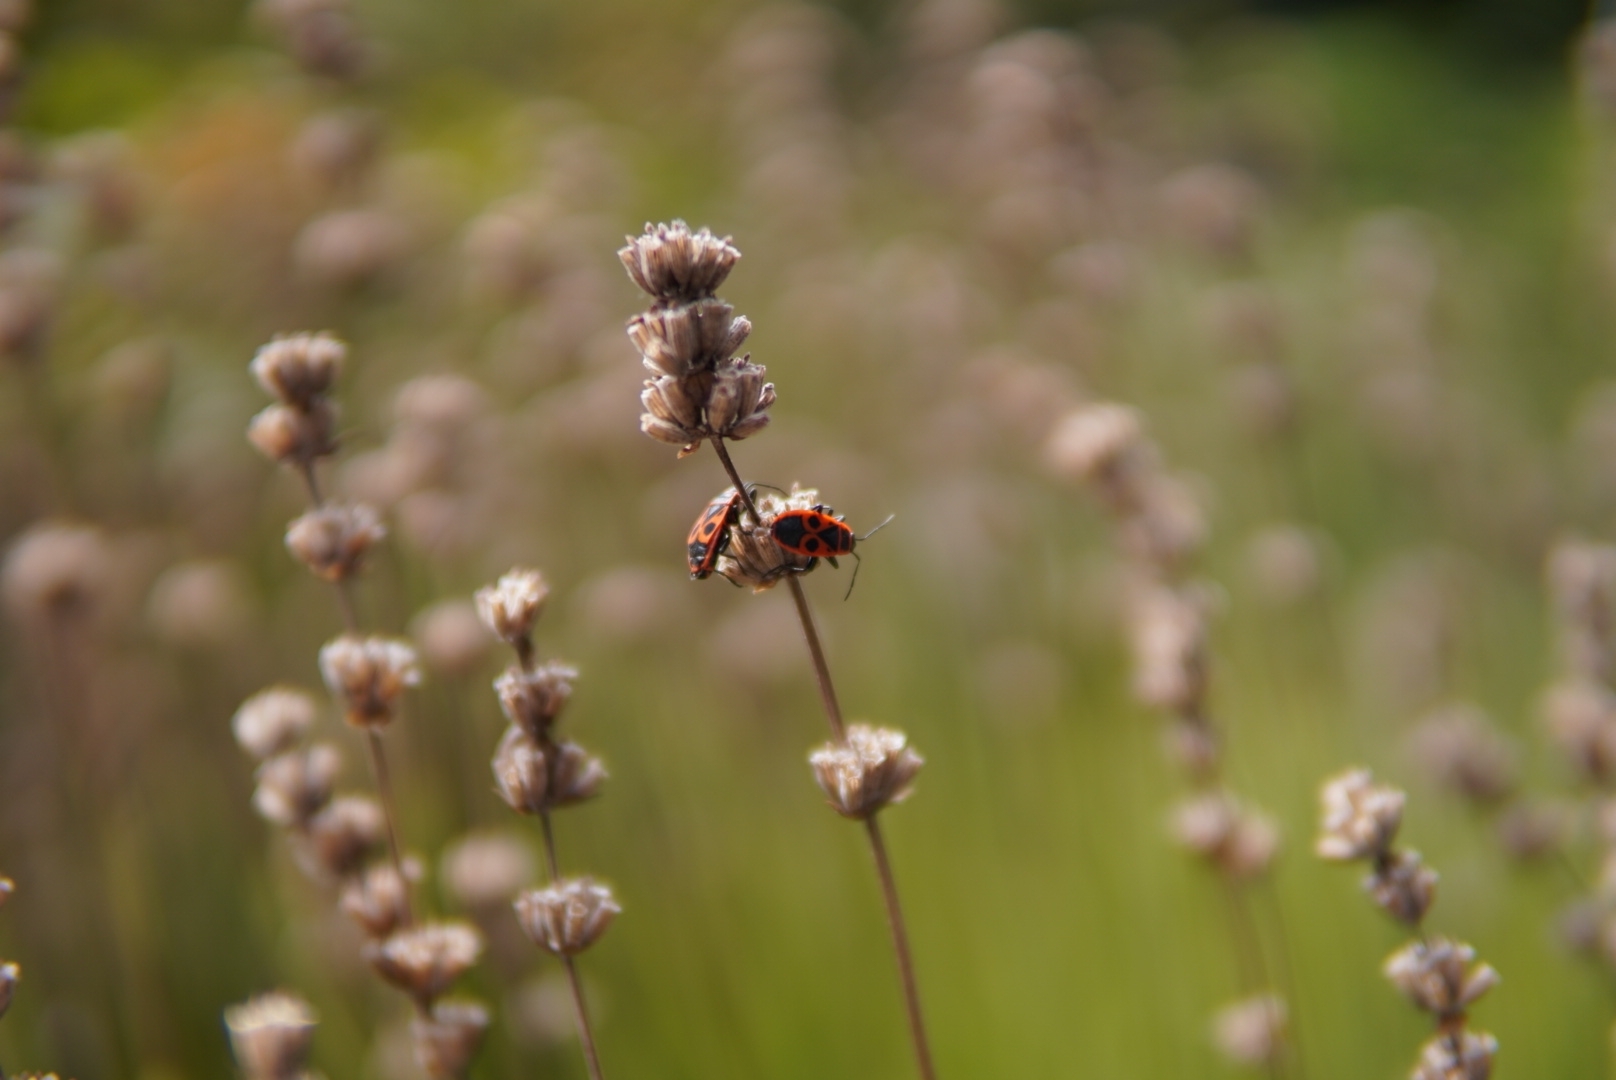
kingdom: Animalia
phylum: Arthropoda
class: Insecta
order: Hemiptera
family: Pyrrhocoridae
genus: Pyrrhocoris
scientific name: Pyrrhocoris apterus
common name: Firebug
